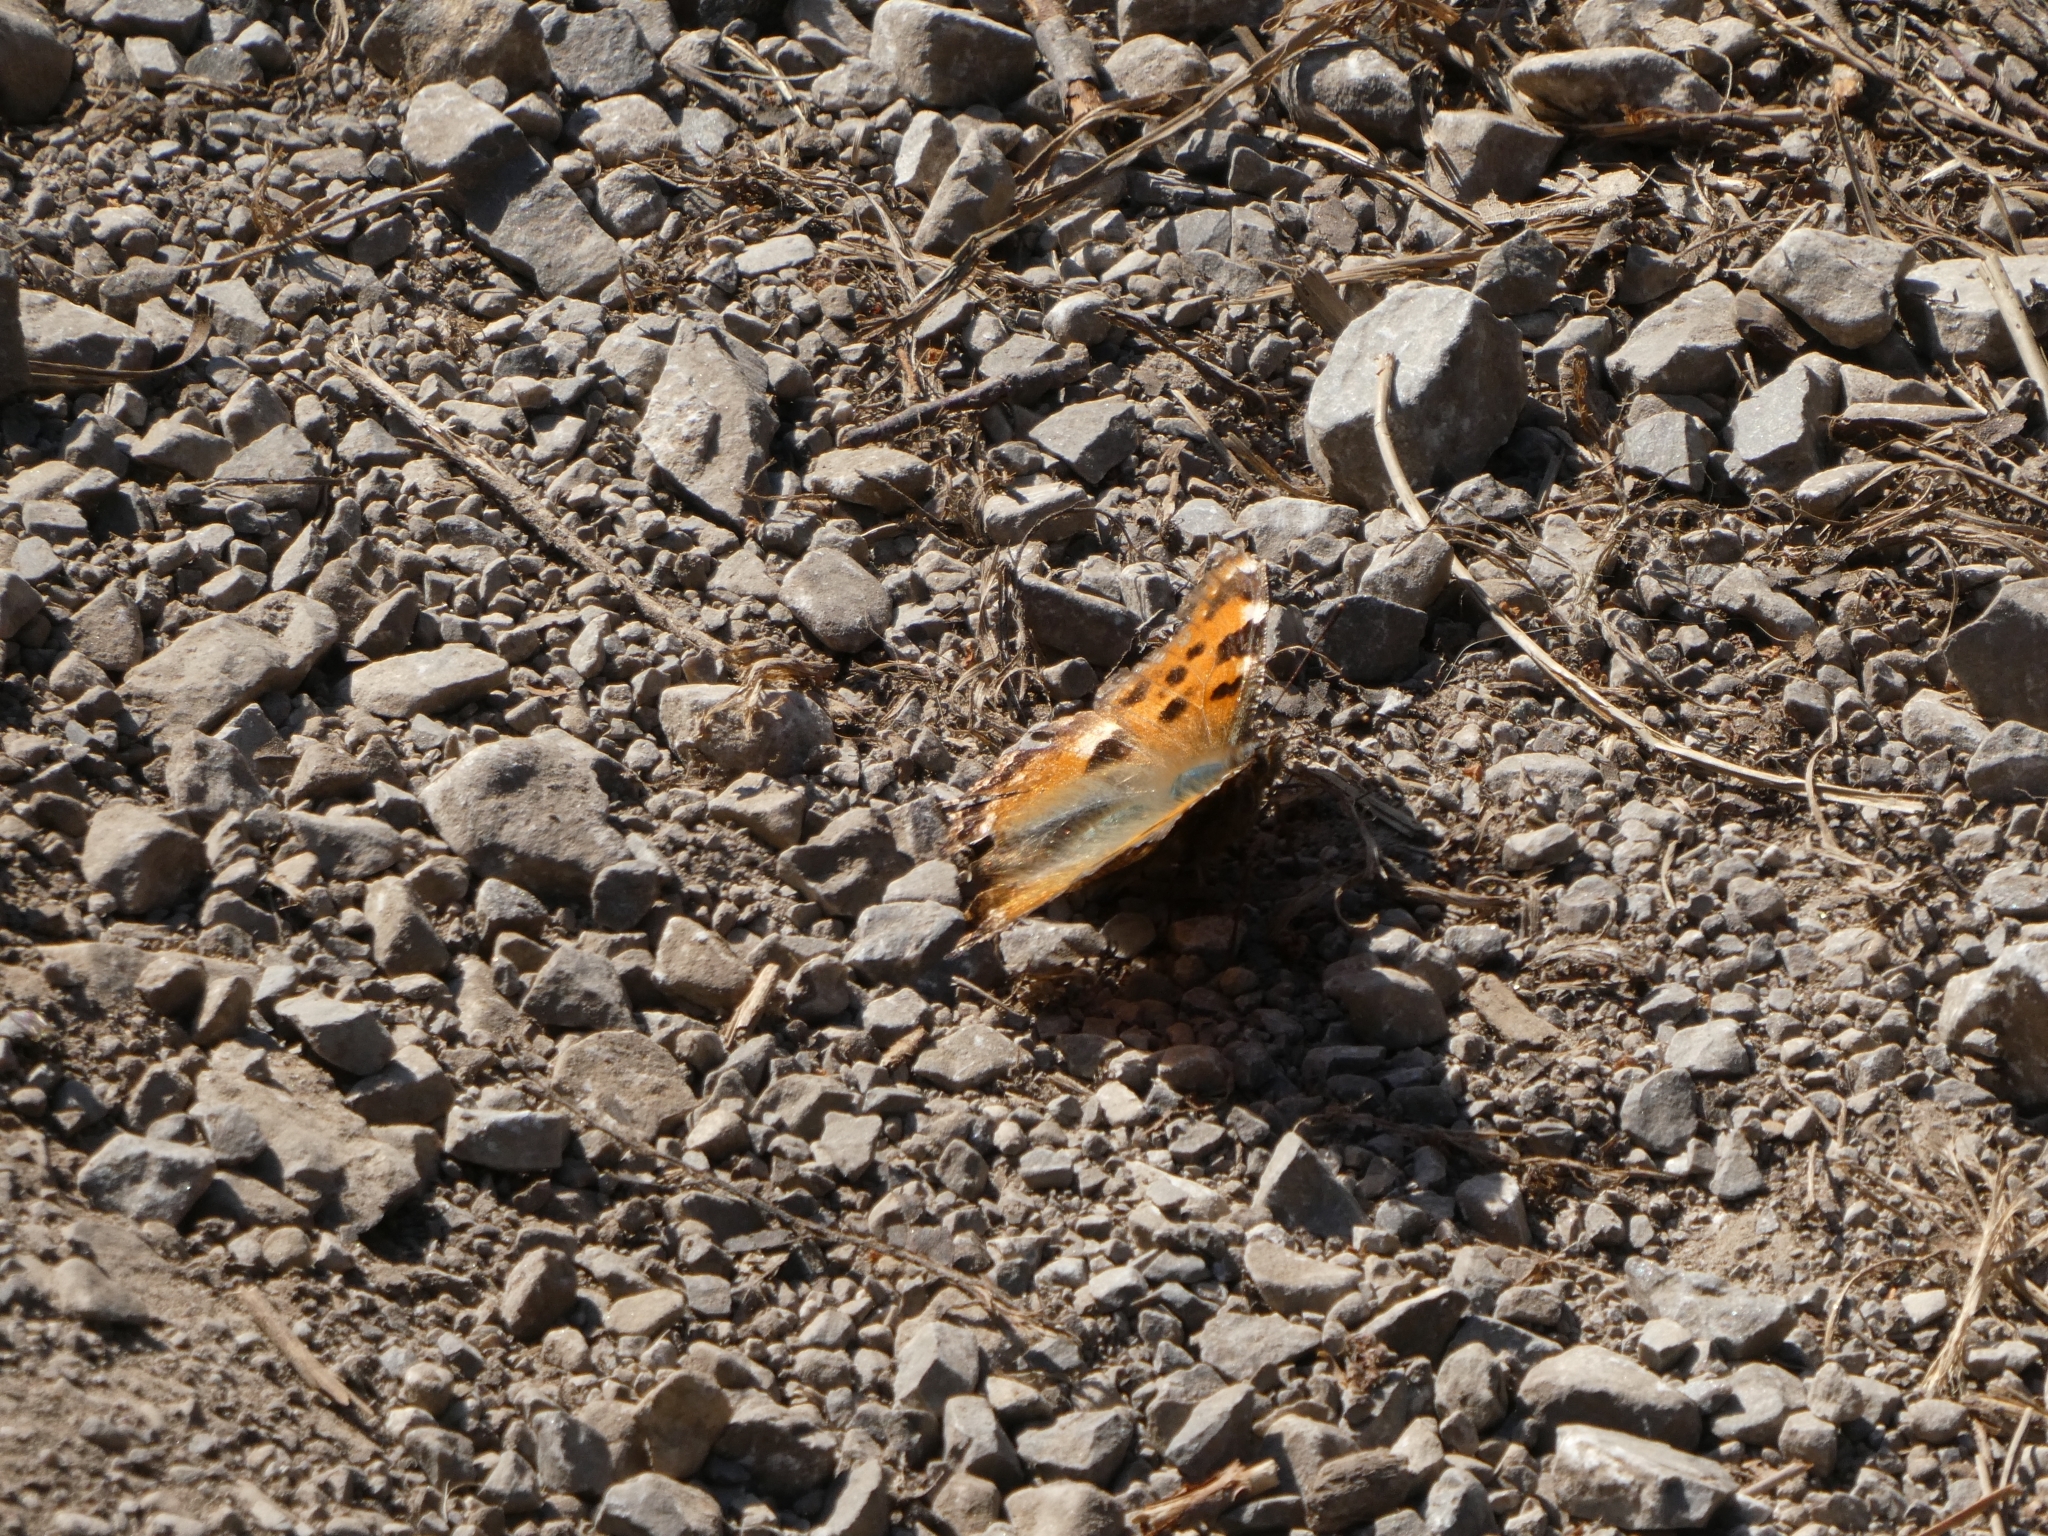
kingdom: Animalia
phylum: Arthropoda
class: Insecta
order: Lepidoptera
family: Nymphalidae
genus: Nymphalis
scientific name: Nymphalis polychloros
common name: Large tortoiseshell
